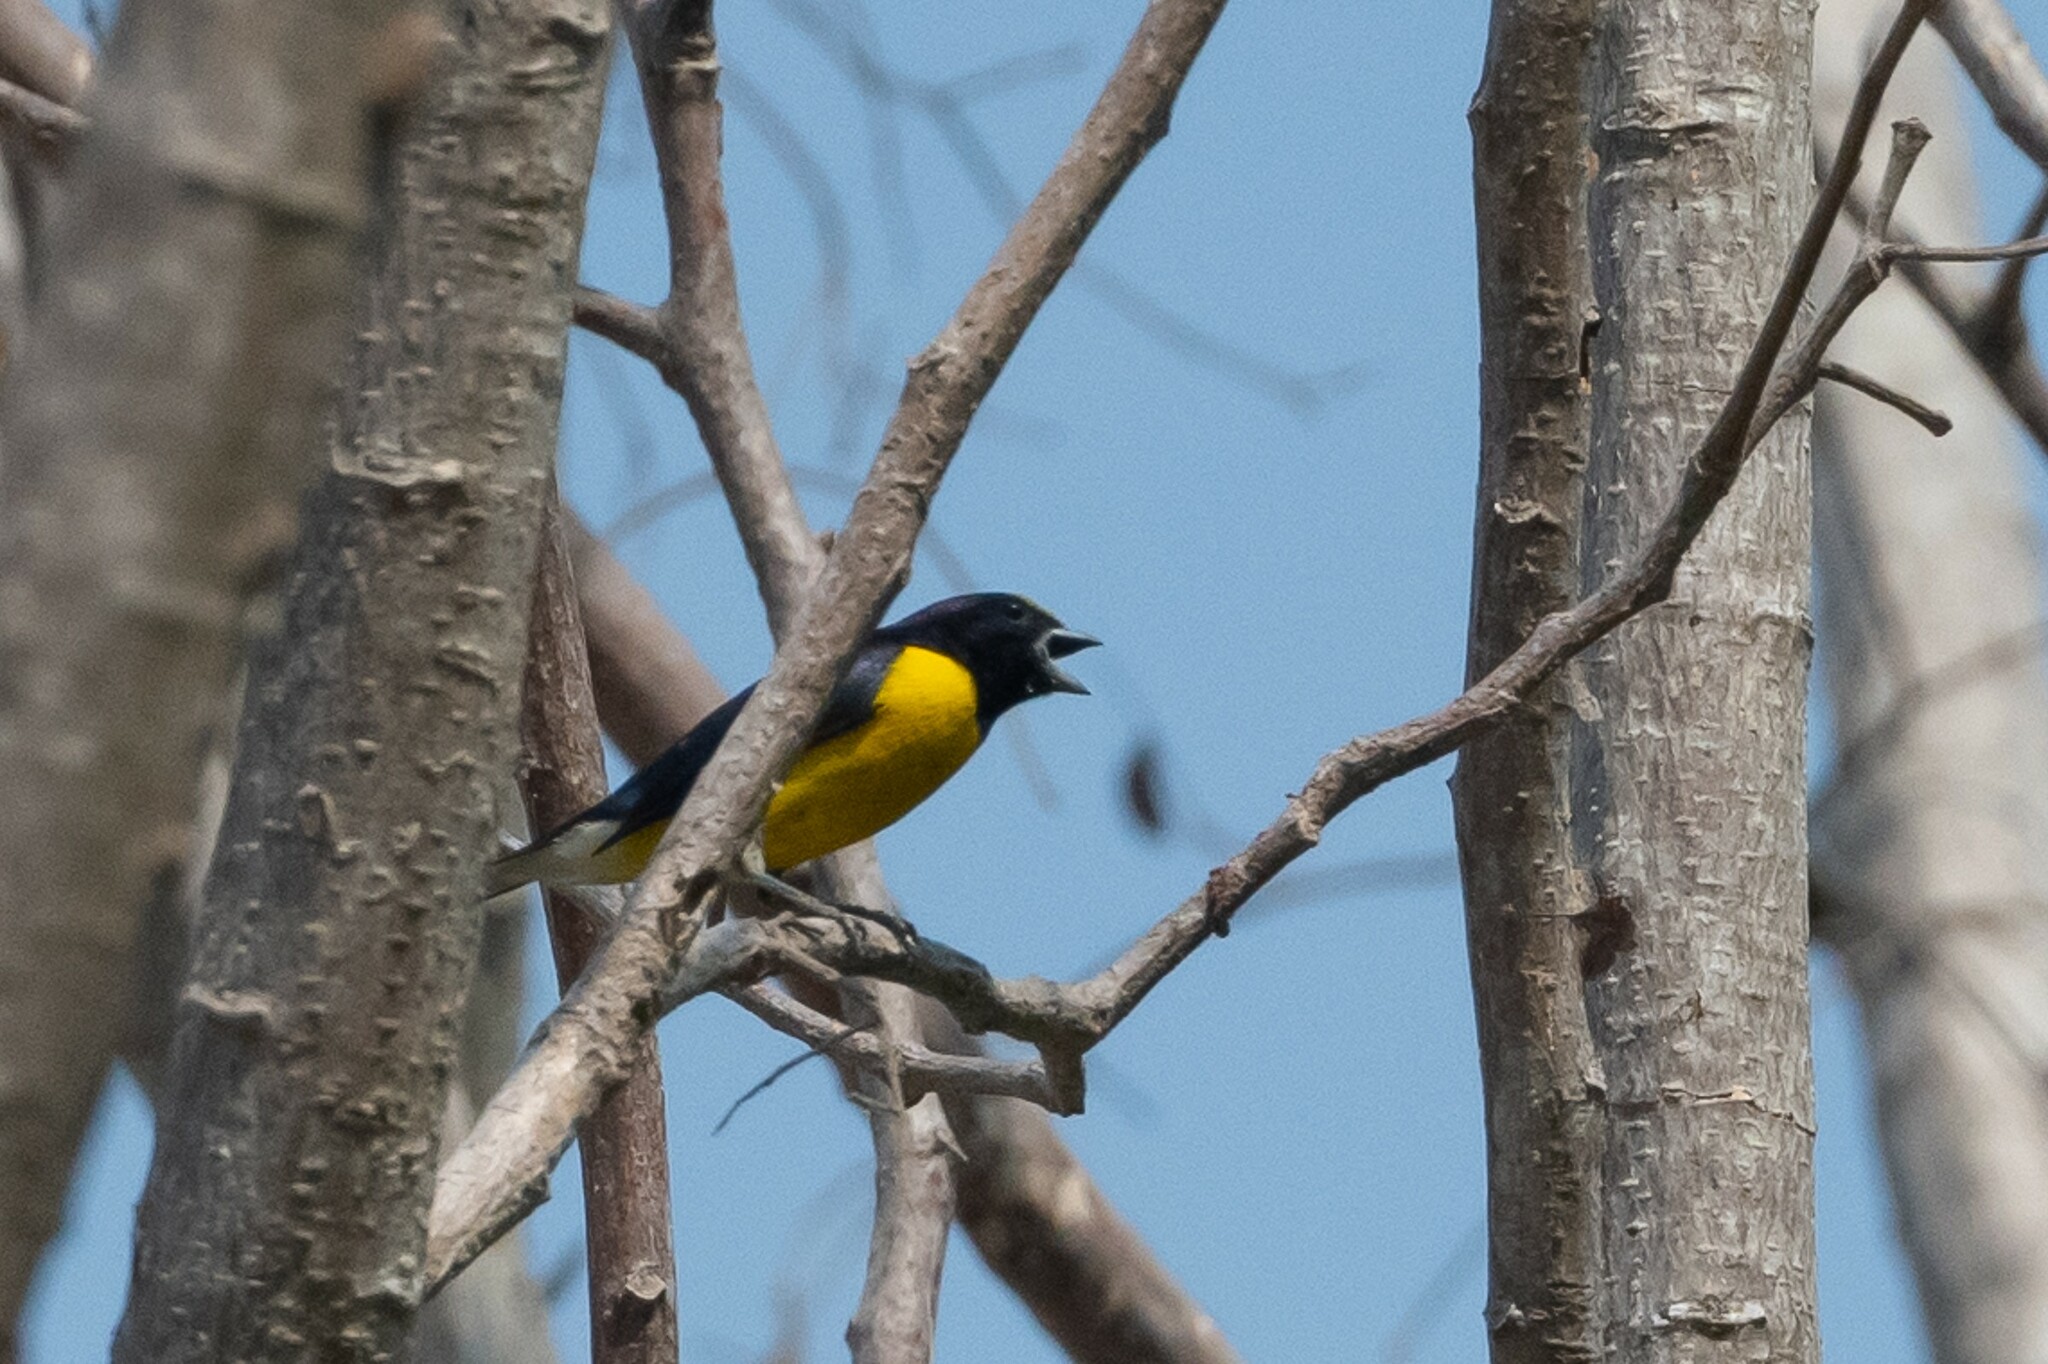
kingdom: Animalia
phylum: Chordata
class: Aves
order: Passeriformes
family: Fringillidae
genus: Euphonia
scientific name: Euphonia godmani
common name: West mexican euphonia
